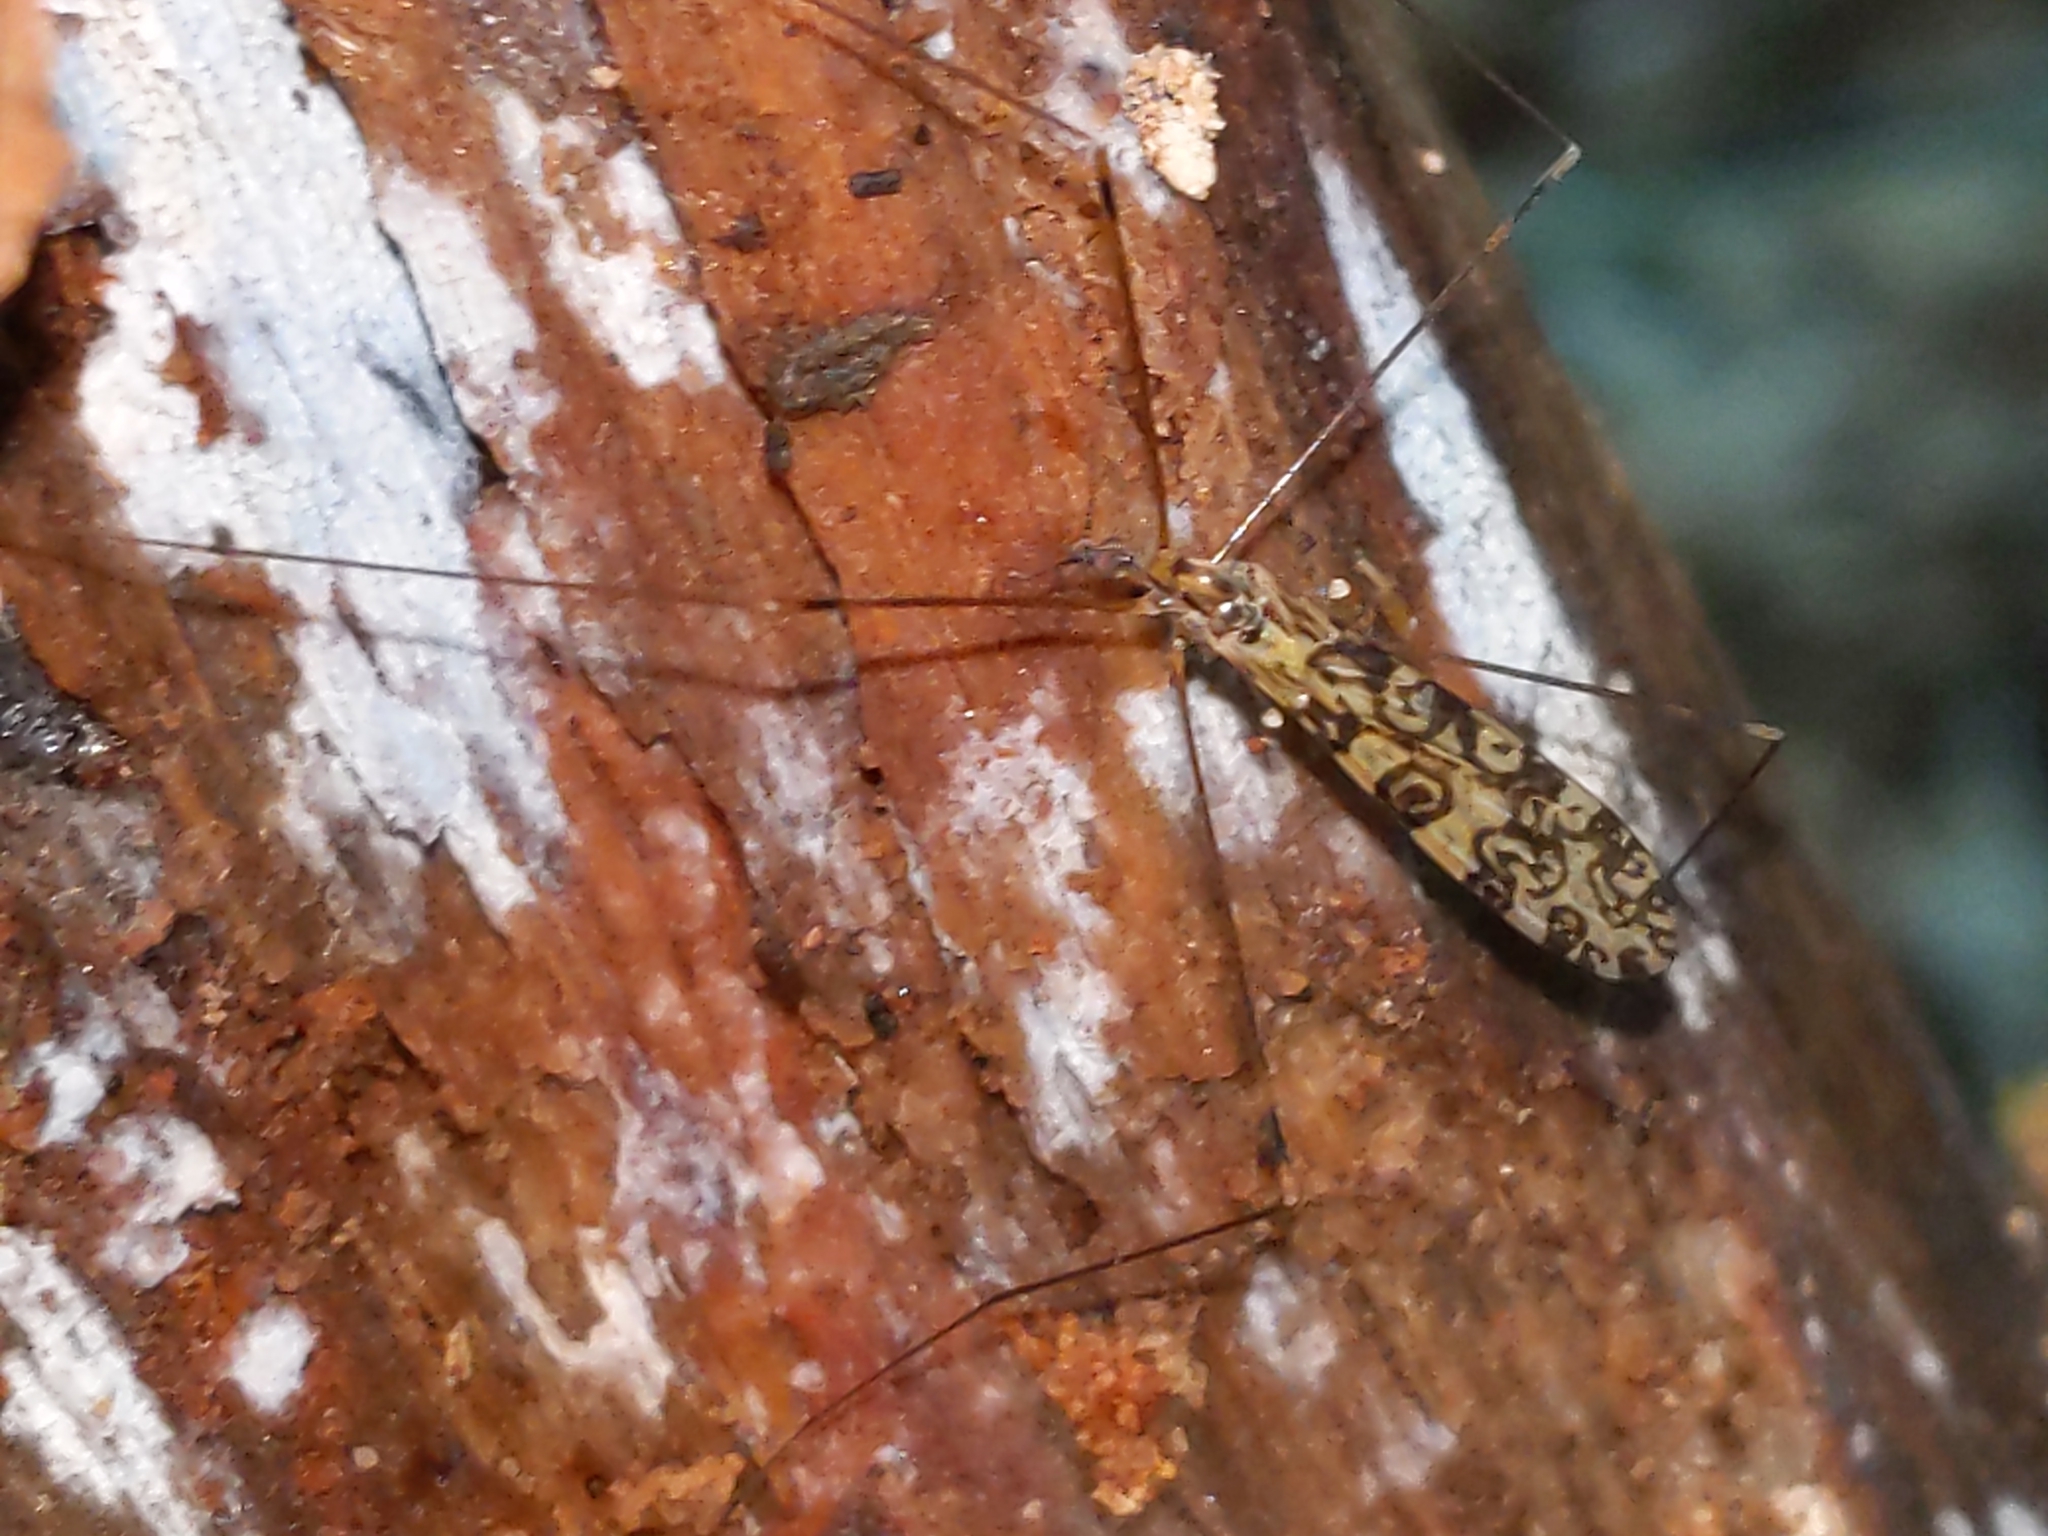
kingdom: Animalia
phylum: Arthropoda
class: Insecta
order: Diptera
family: Limoniidae
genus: Limonia
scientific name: Limonia annulata
